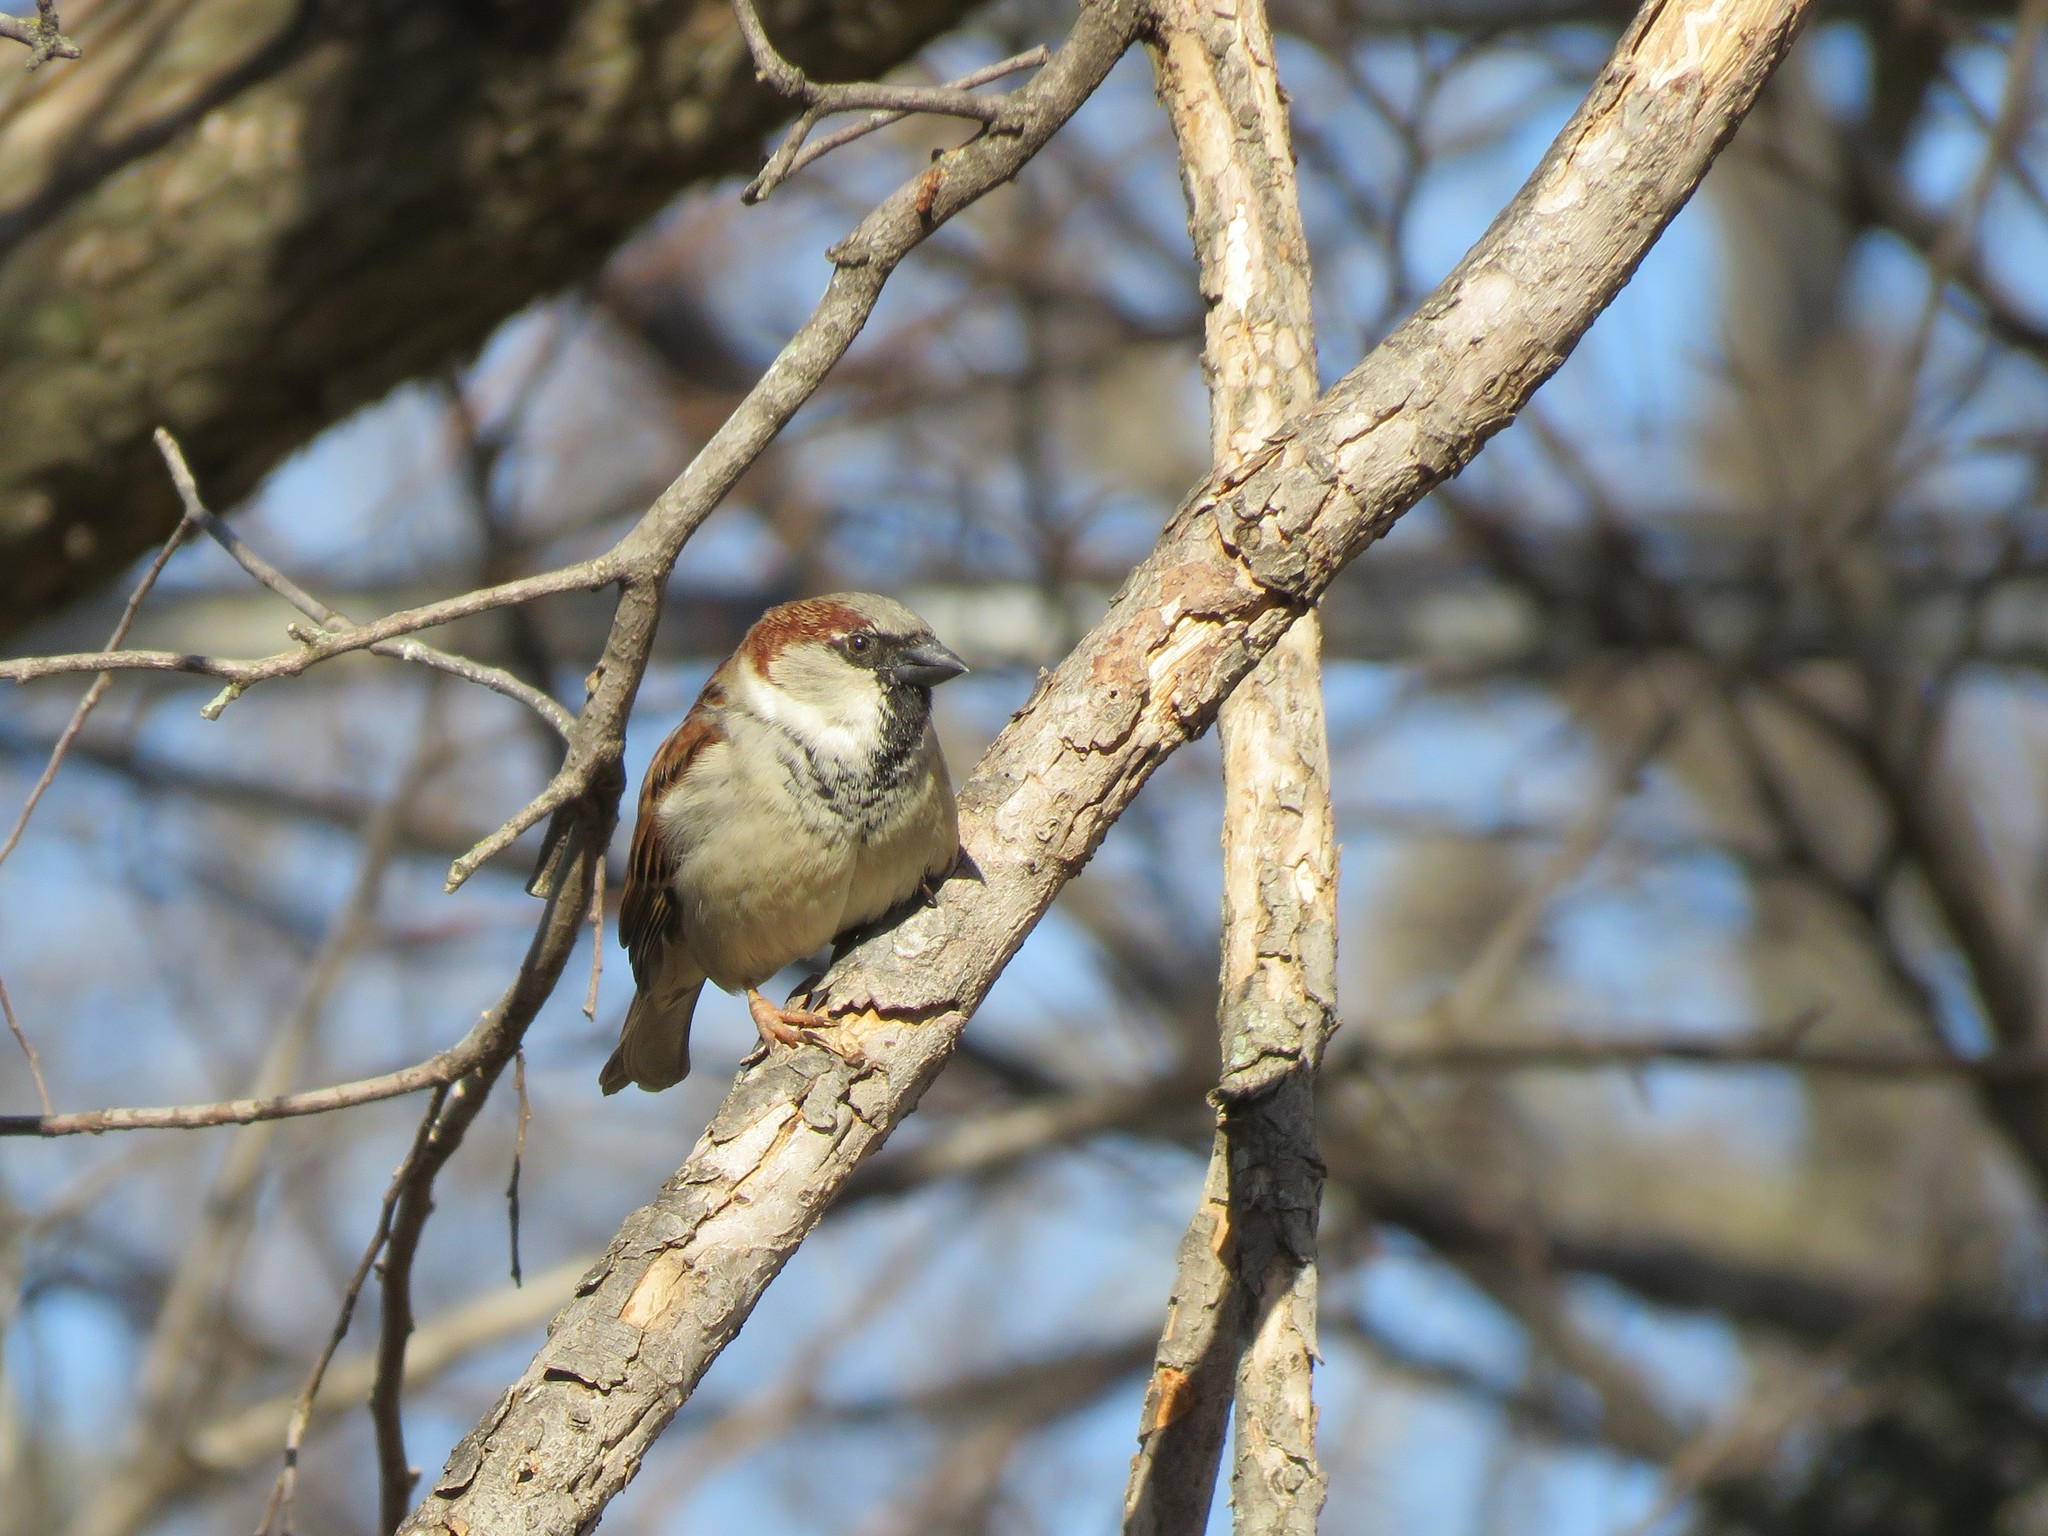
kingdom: Animalia
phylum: Chordata
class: Aves
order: Passeriformes
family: Passeridae
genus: Passer
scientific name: Passer domesticus
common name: House sparrow
